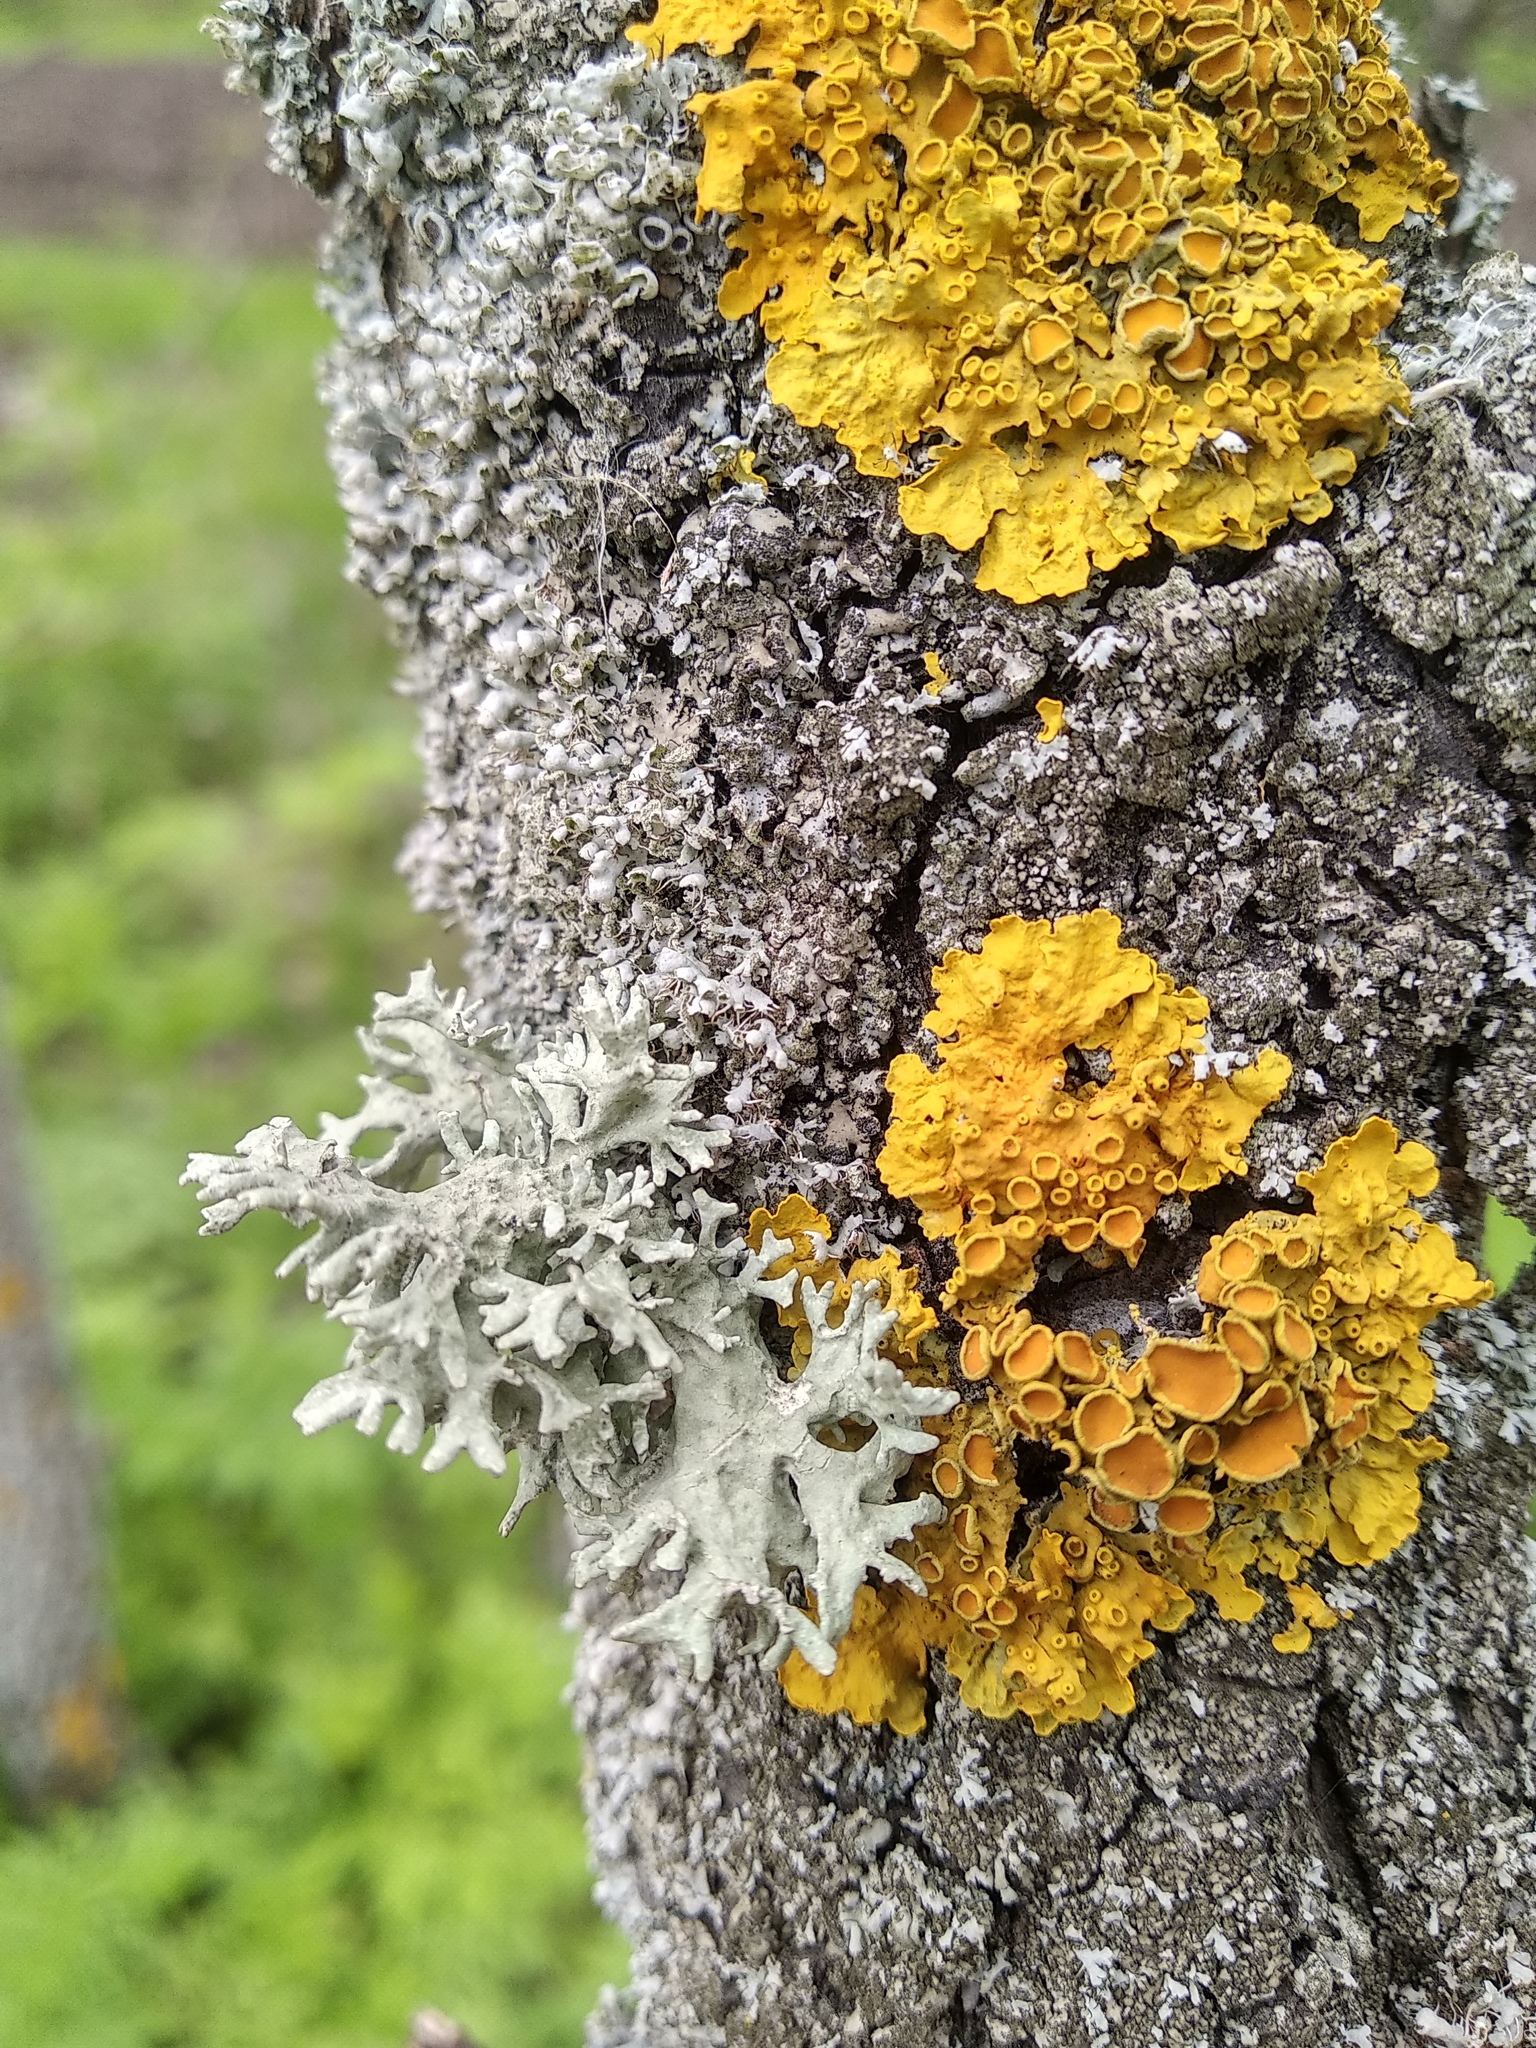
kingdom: Fungi
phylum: Ascomycota
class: Lecanoromycetes
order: Teloschistales
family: Teloschistaceae
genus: Xanthoria
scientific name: Xanthoria parietina
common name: Common orange lichen
